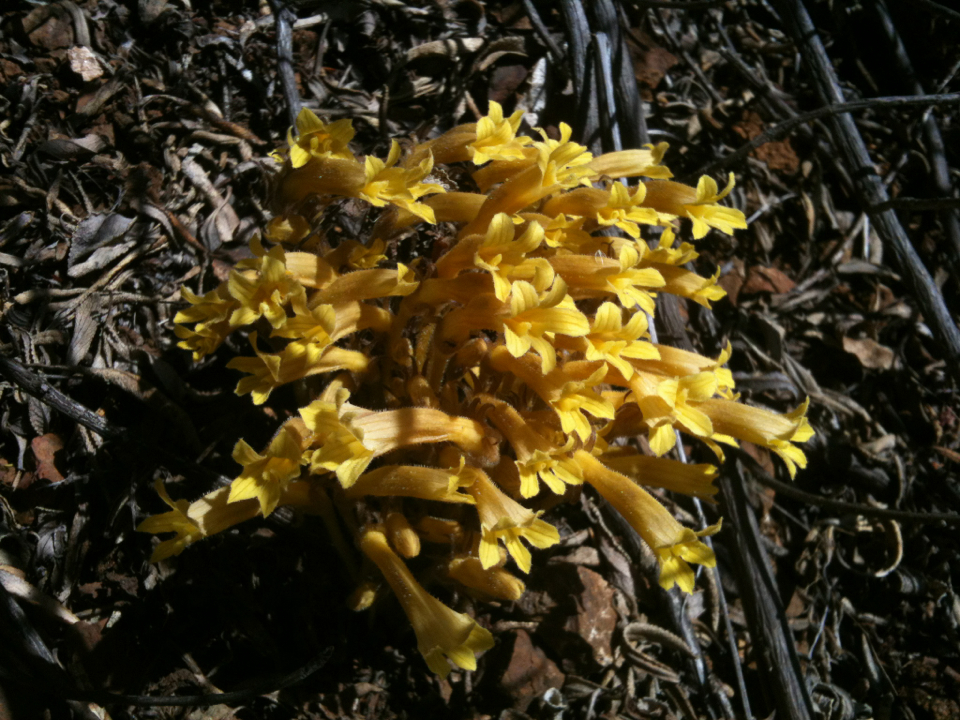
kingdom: Plantae
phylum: Tracheophyta
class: Magnoliopsida
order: Lamiales
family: Orobanchaceae
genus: Aphyllon
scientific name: Aphyllon franciscanum
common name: San francisco broomrape
